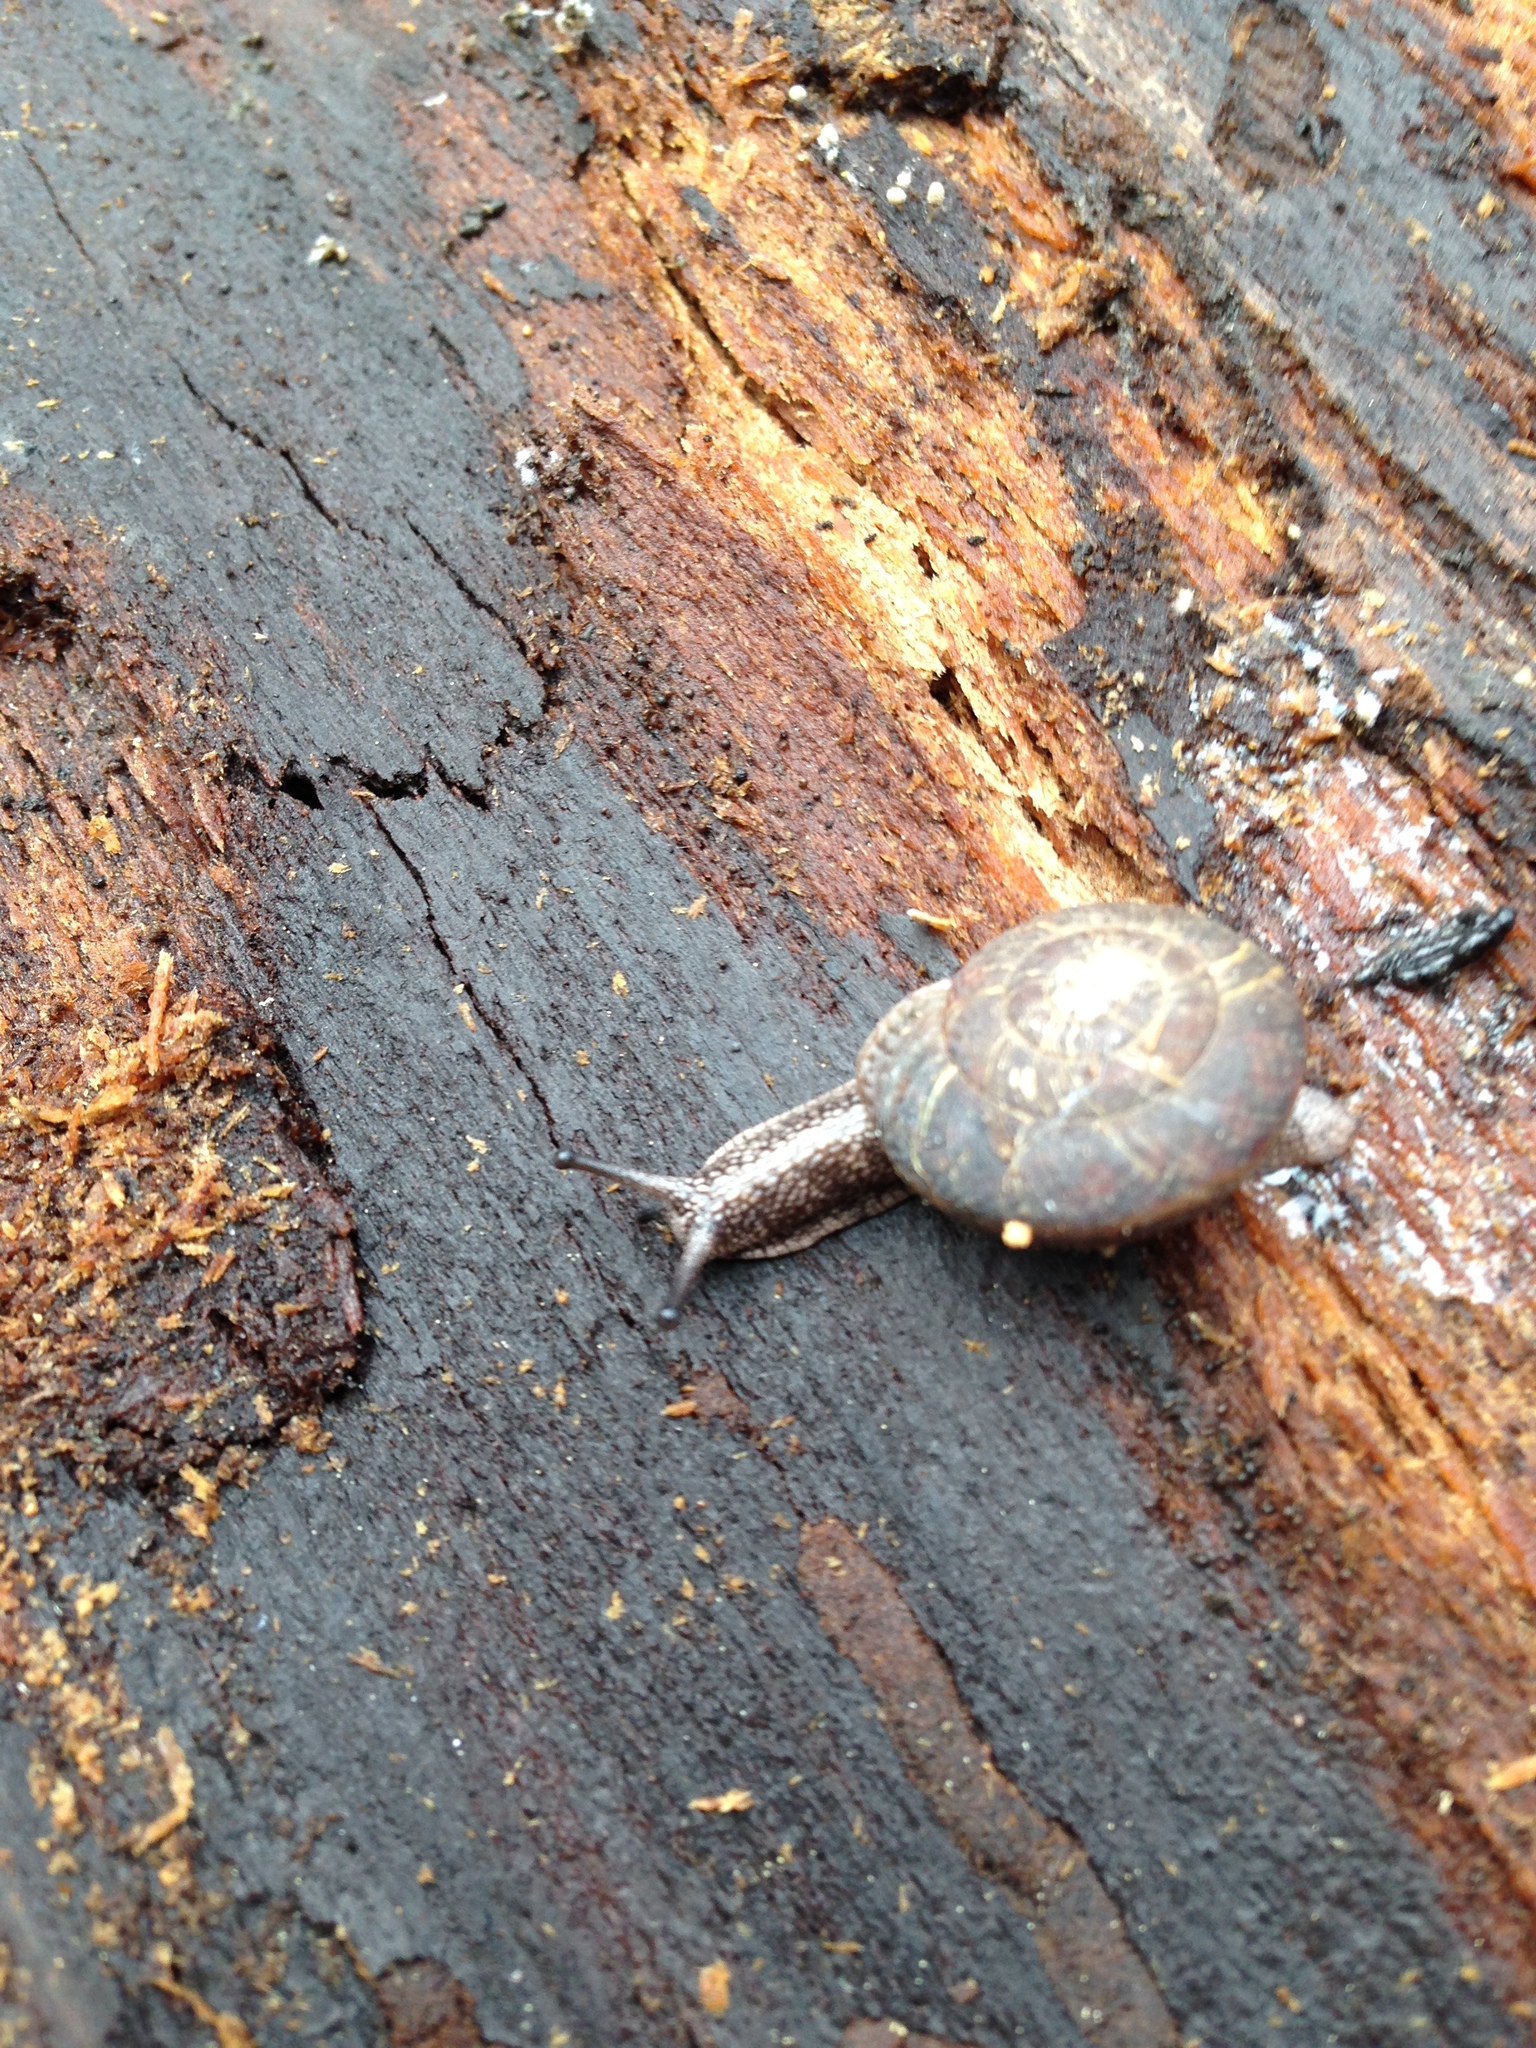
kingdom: Animalia
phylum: Mollusca
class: Gastropoda
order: Stylommatophora
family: Xanthonychidae
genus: Monadenia
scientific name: Monadenia fidelis
